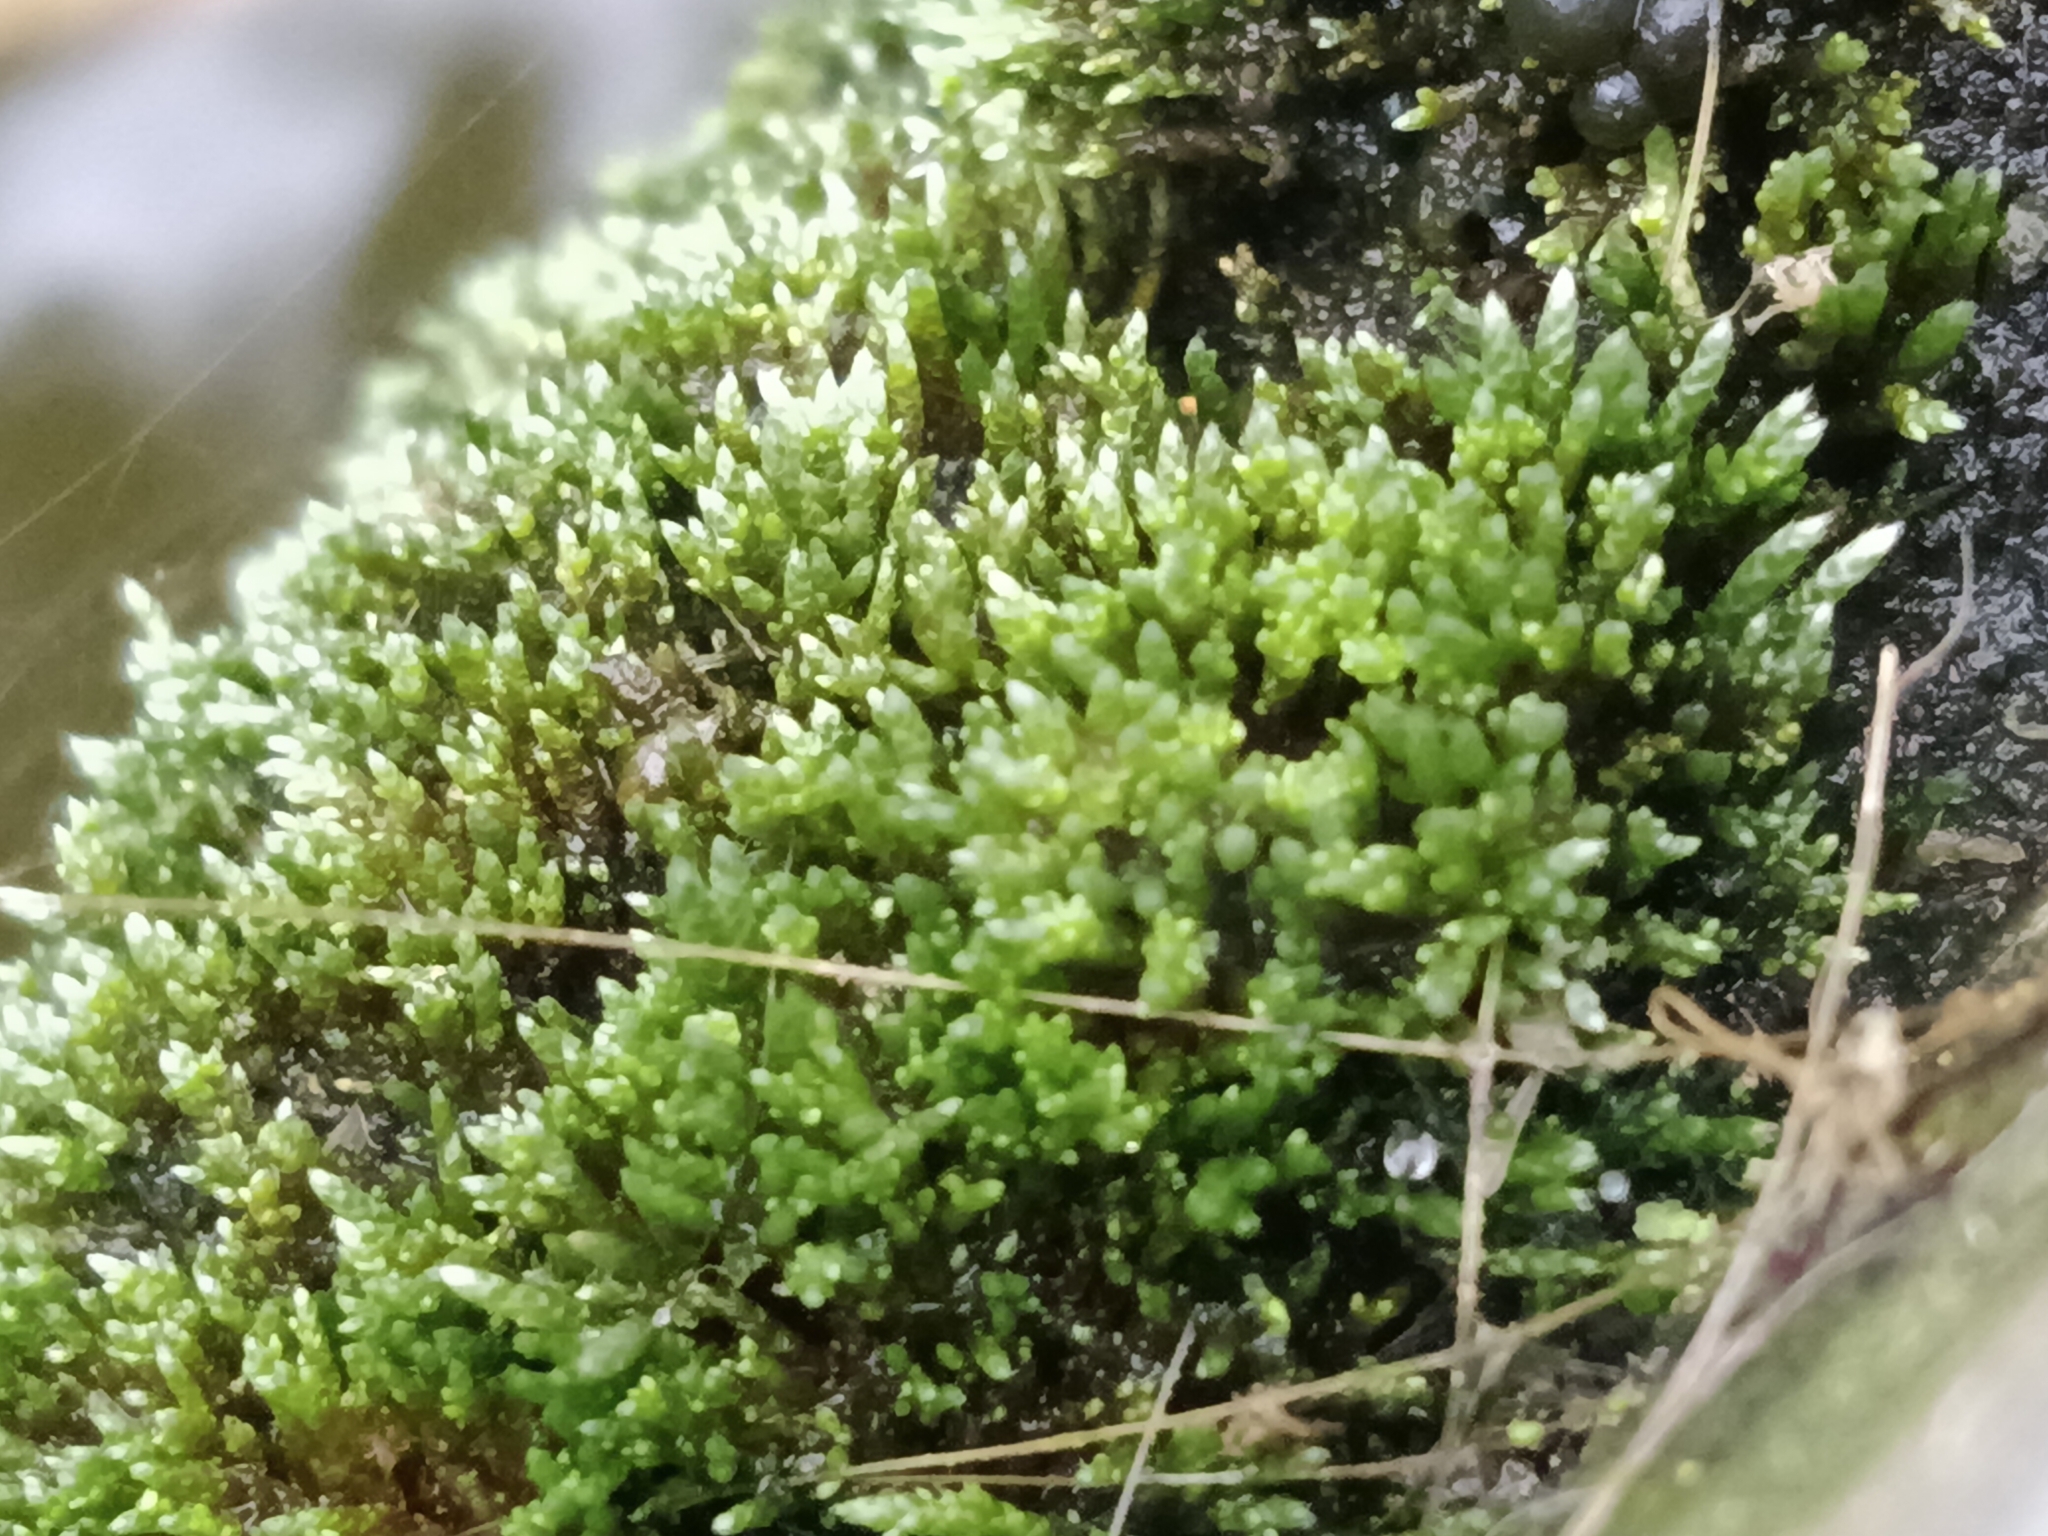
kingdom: Plantae
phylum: Bryophyta
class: Bryopsida
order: Bryales
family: Bryaceae
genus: Bryum
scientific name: Bryum argenteum
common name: Silver-moss
